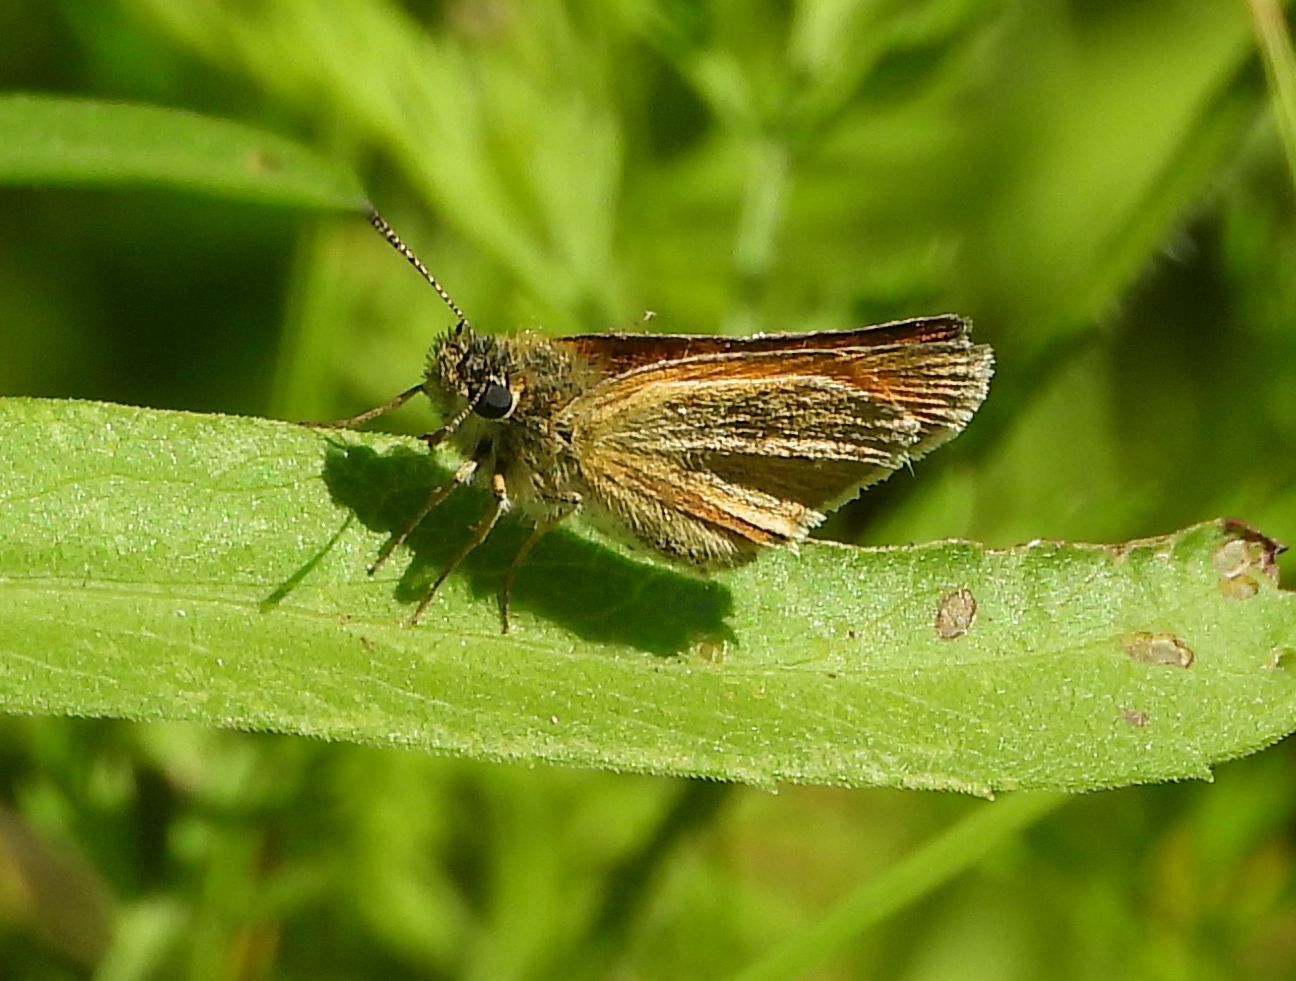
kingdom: Animalia
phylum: Arthropoda
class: Insecta
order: Lepidoptera
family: Hesperiidae
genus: Thymelicus
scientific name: Thymelicus lineola
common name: Essex skipper
